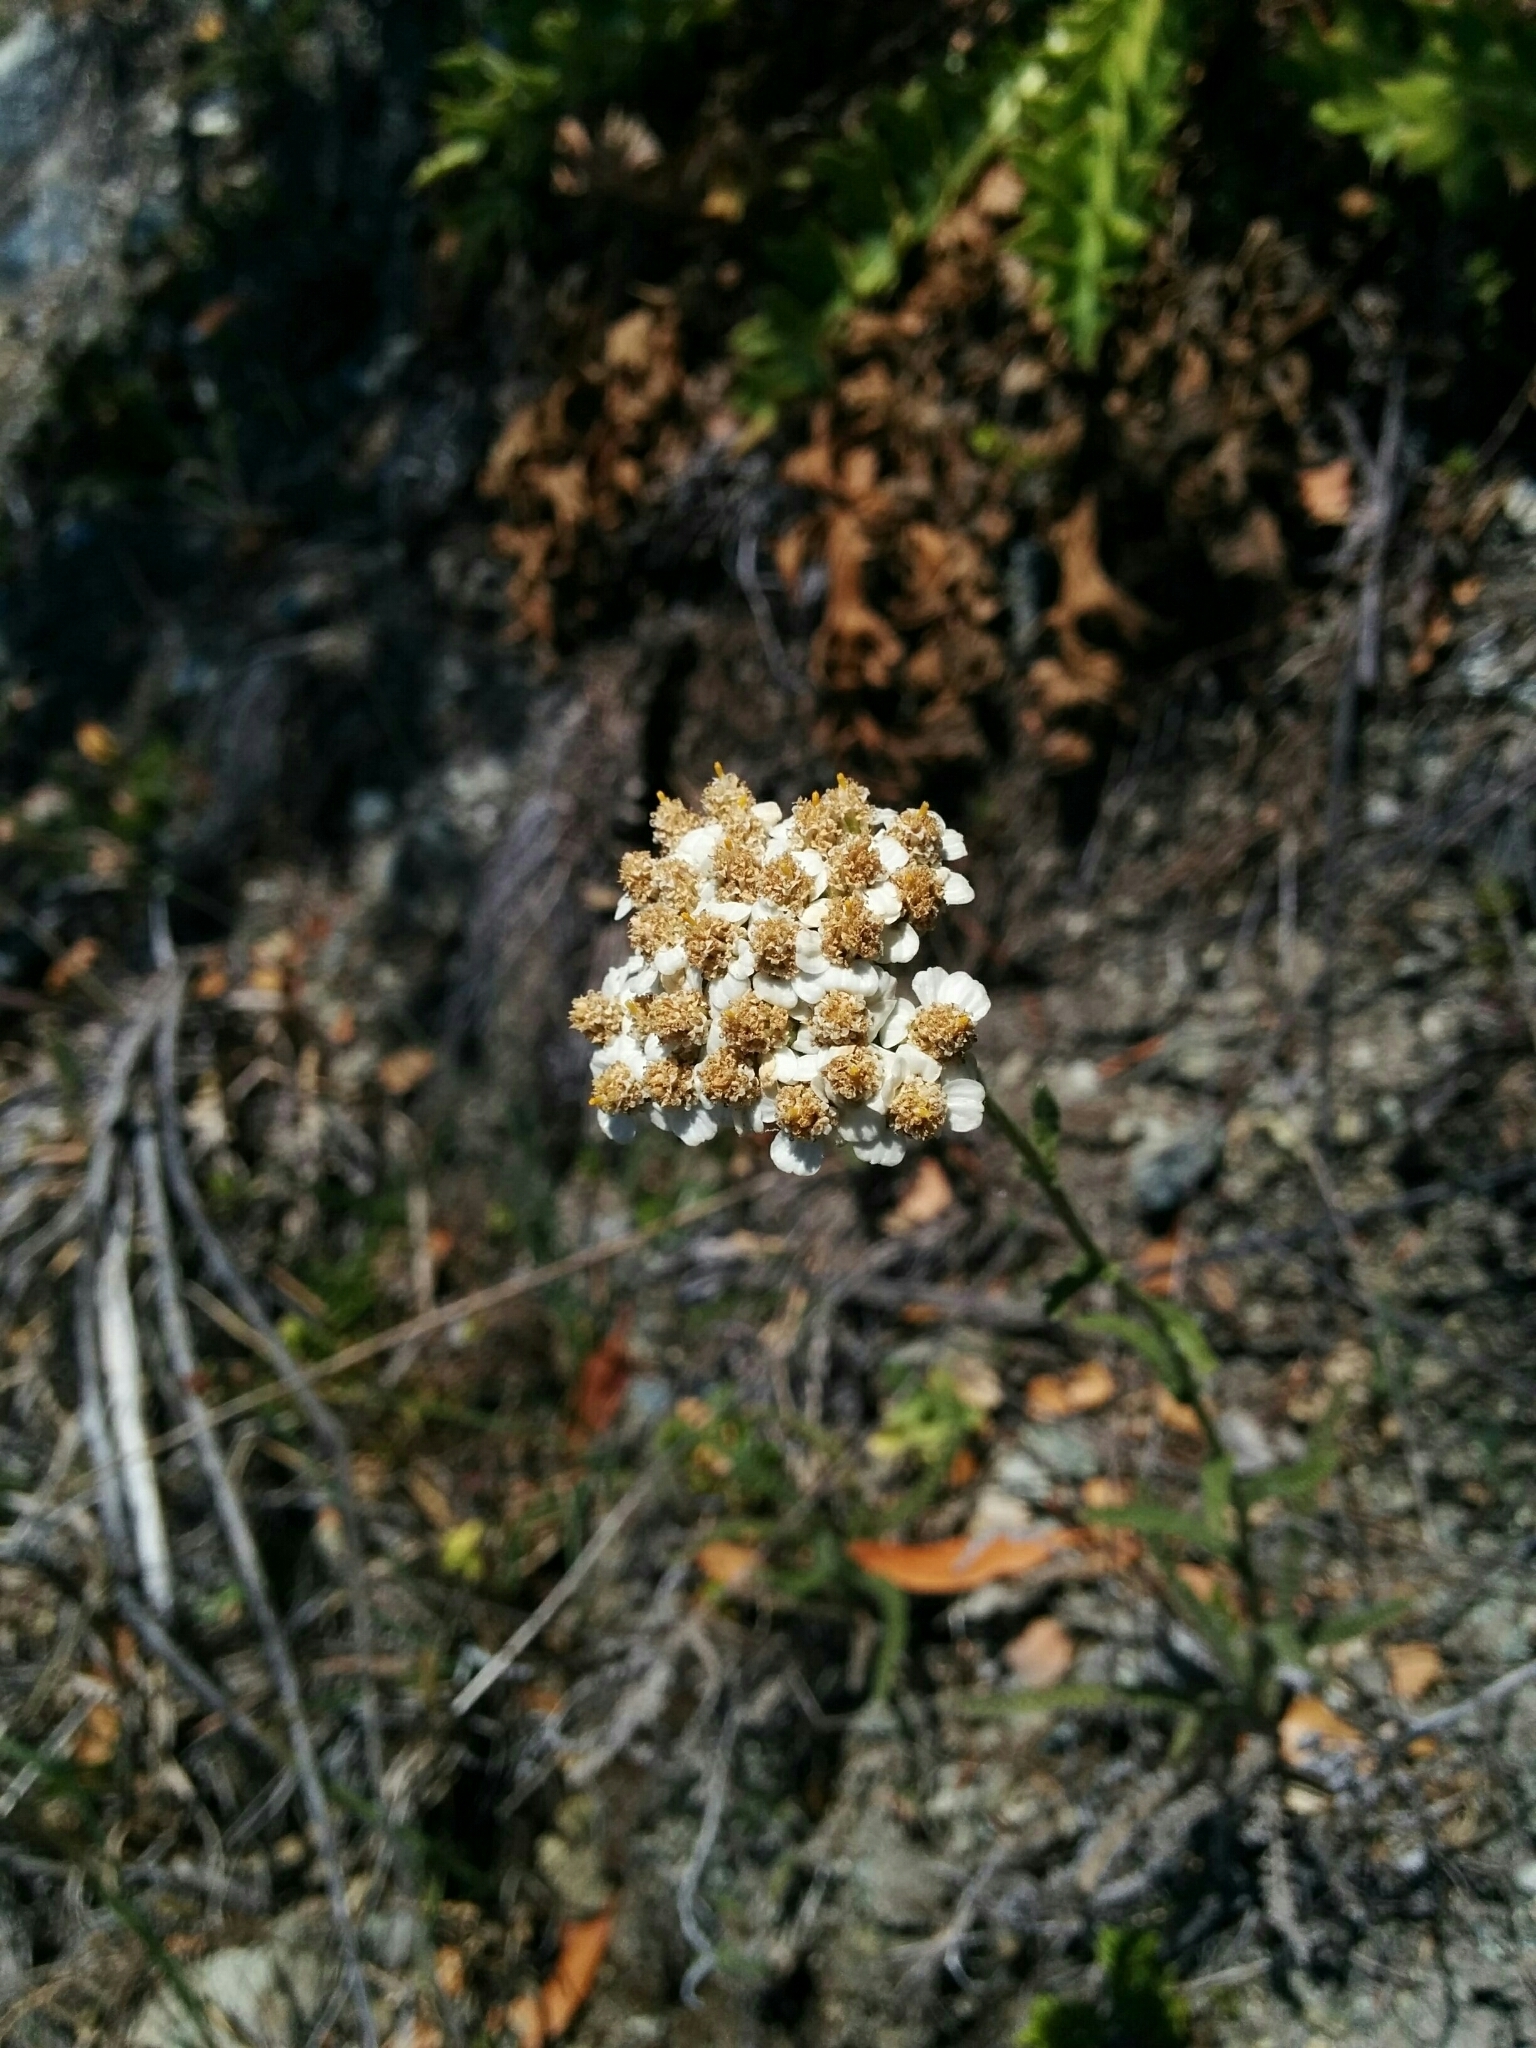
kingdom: Plantae
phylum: Tracheophyta
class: Magnoliopsida
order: Asterales
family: Asteraceae
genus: Achillea
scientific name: Achillea millefolium
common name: Yarrow
